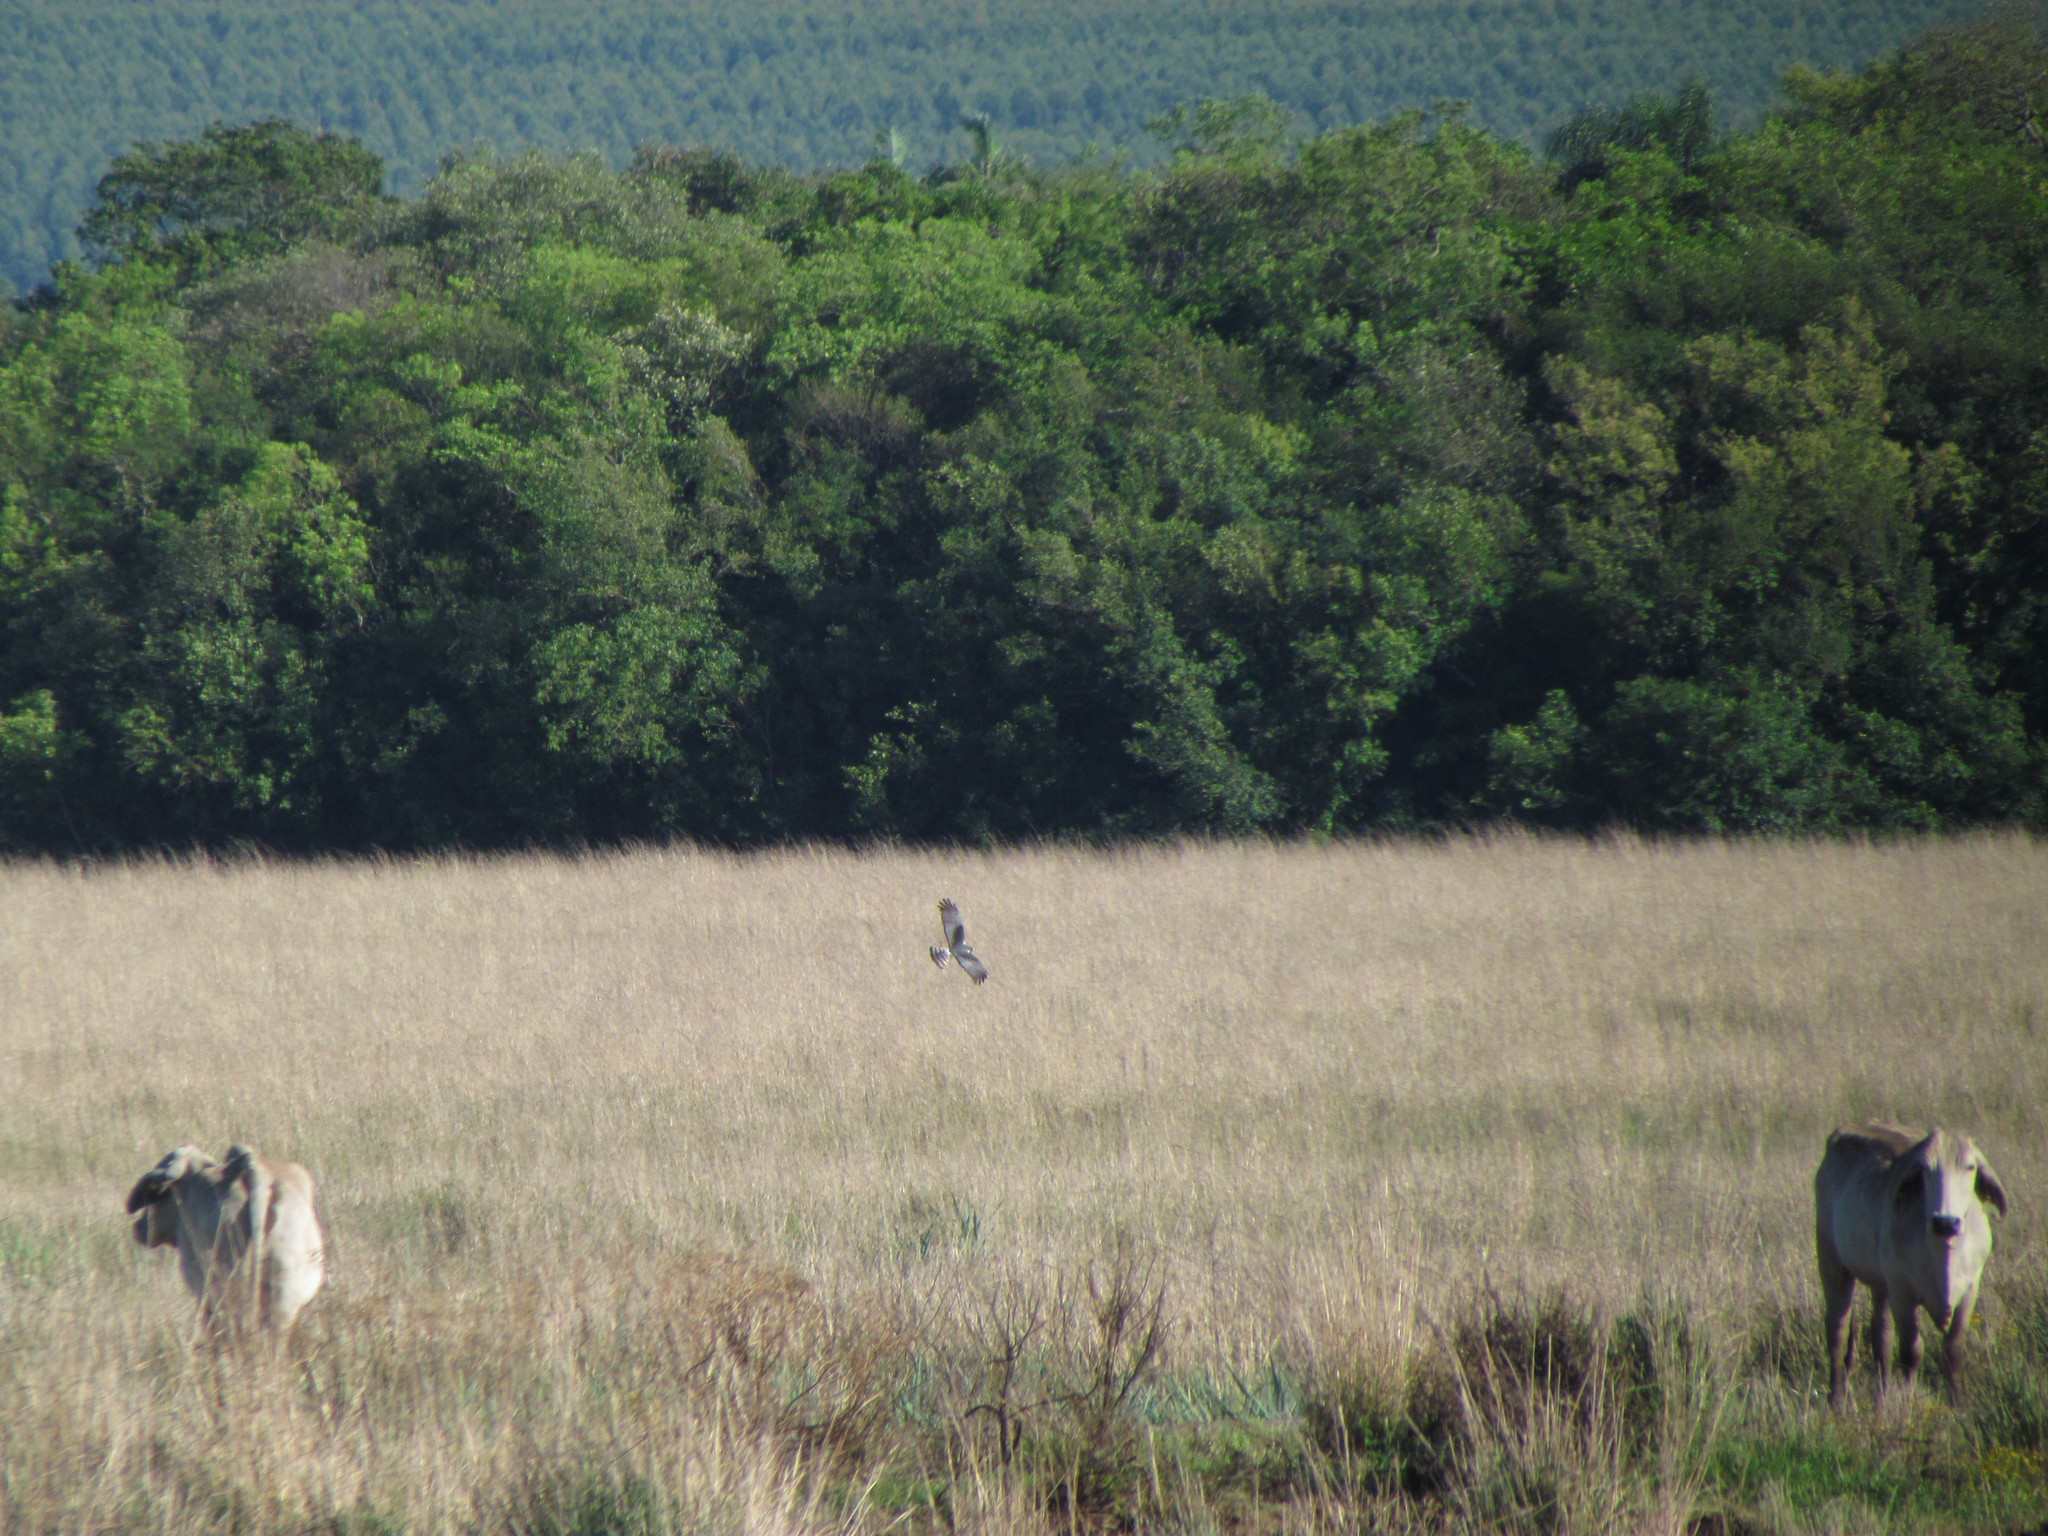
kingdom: Animalia
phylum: Chordata
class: Aves
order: Accipitriformes
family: Accipitridae
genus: Circus
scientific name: Circus buffoni
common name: Long-winged harrier
